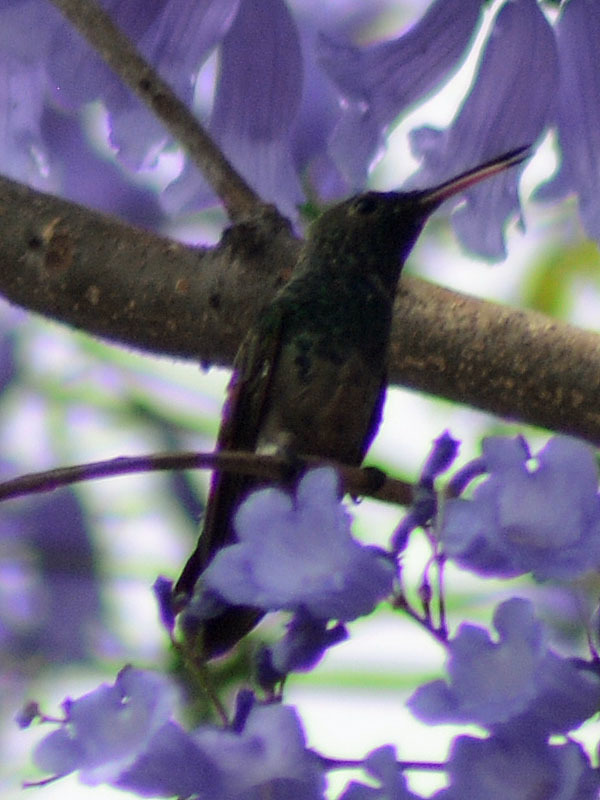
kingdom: Animalia
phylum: Chordata
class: Aves
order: Apodiformes
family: Trochilidae
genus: Saucerottia
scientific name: Saucerottia beryllina
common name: Berylline hummingbird
